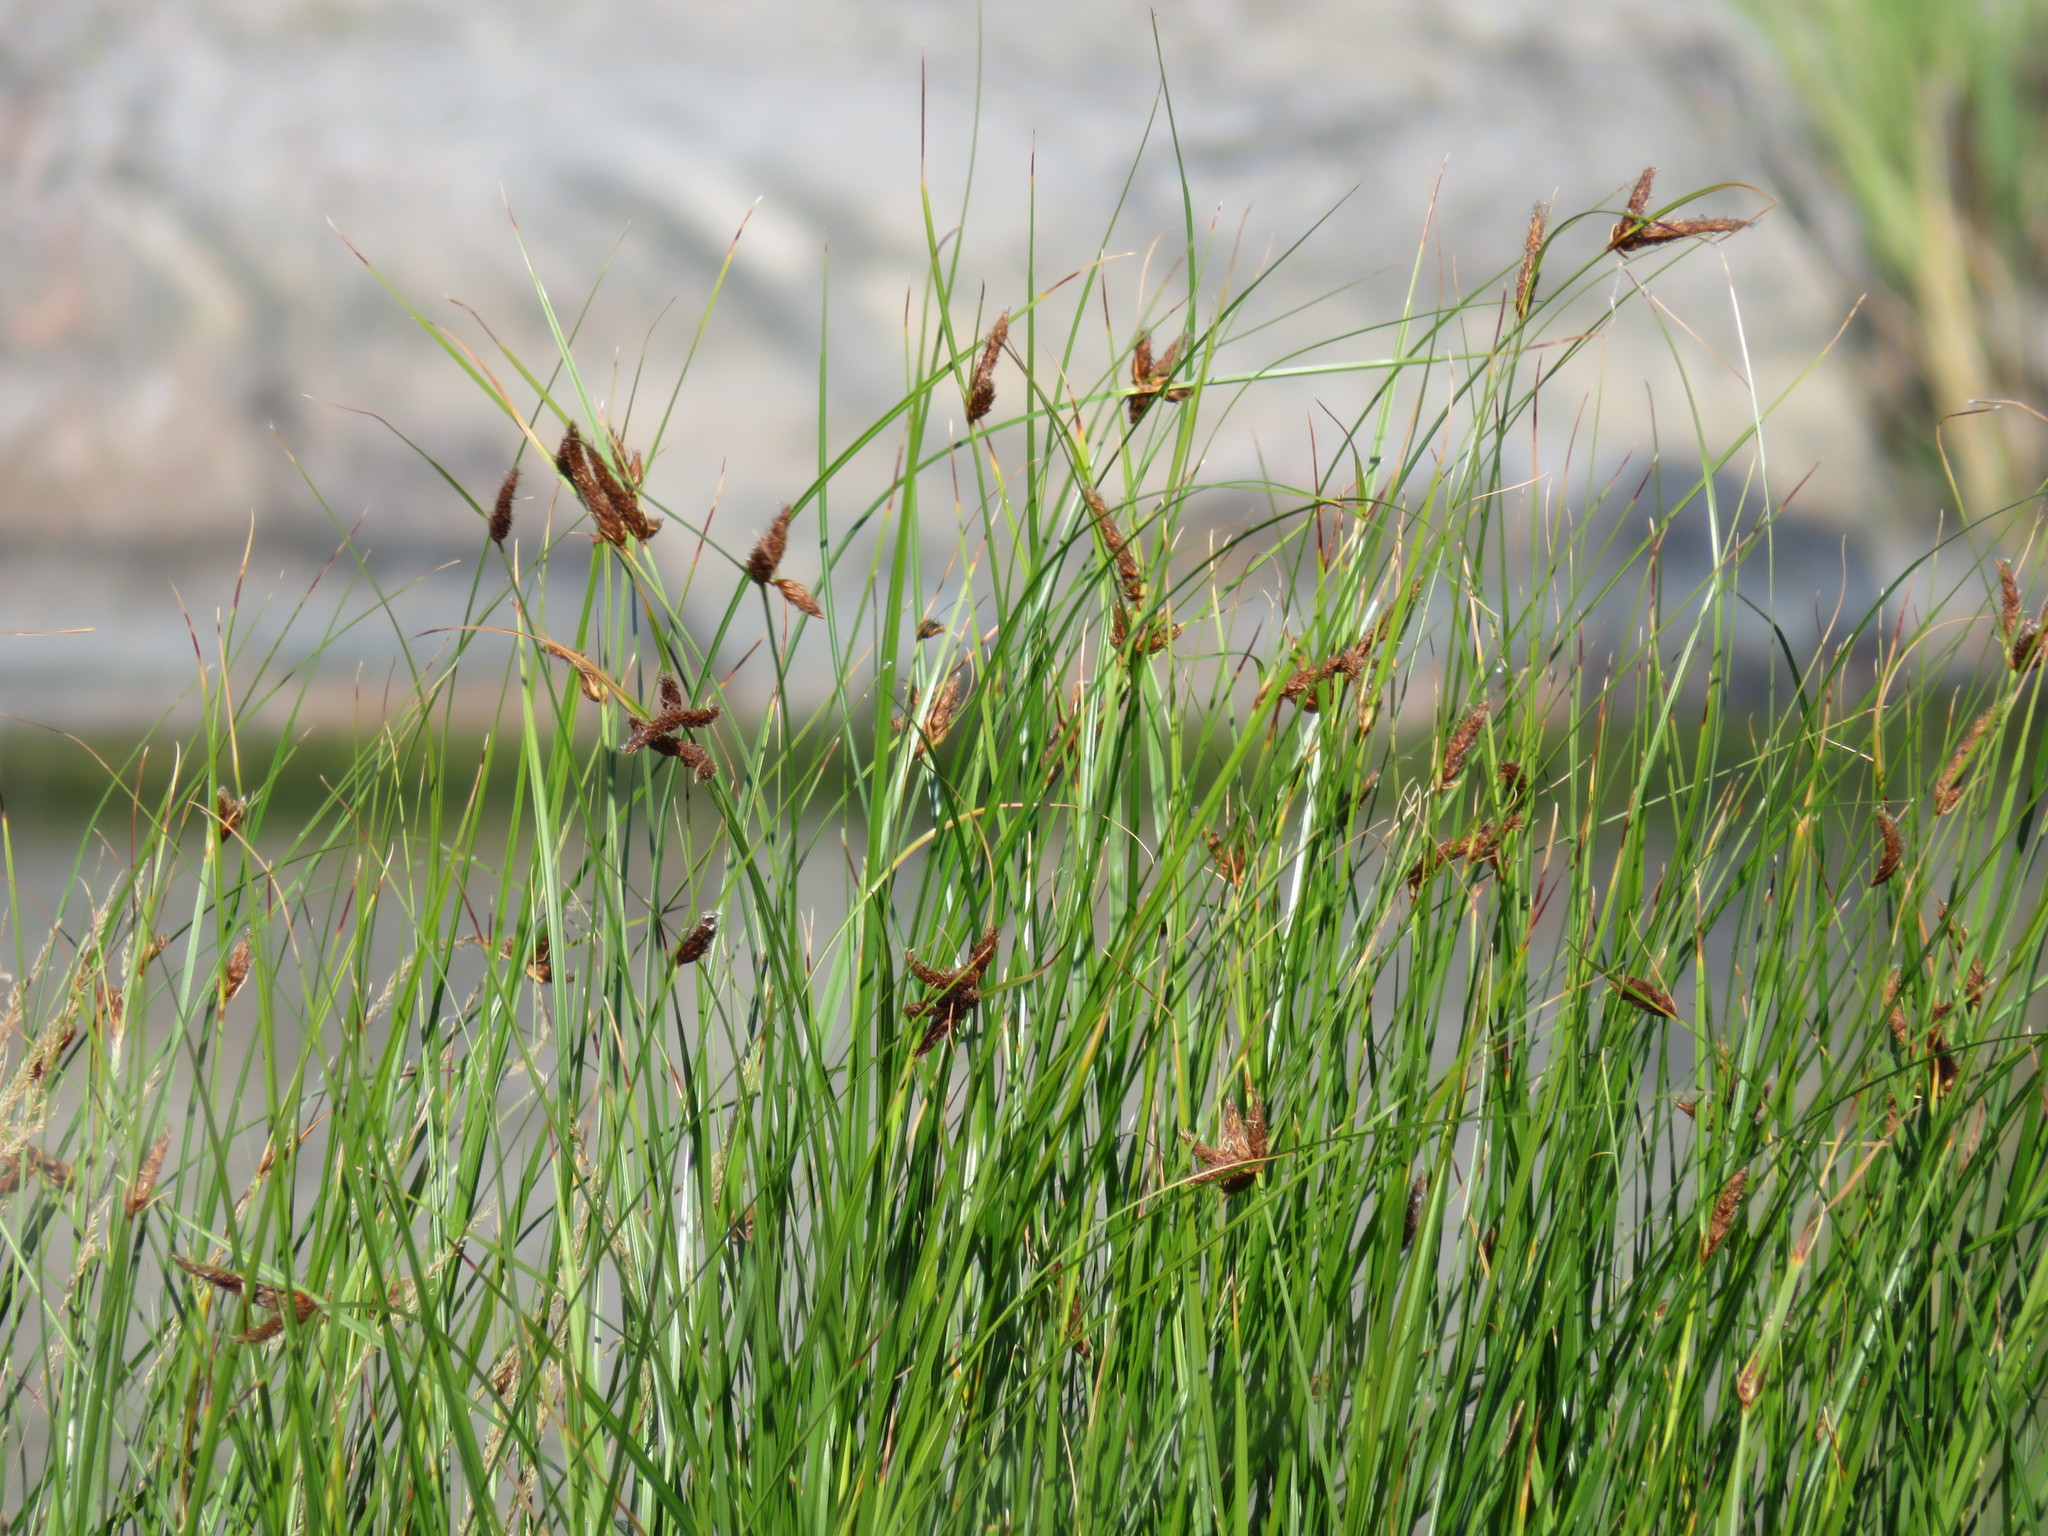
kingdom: Plantae
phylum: Tracheophyta
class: Liliopsida
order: Poales
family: Cyperaceae
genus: Bolboschoenus
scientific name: Bolboschoenus maritimus
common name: Sea club-rush
